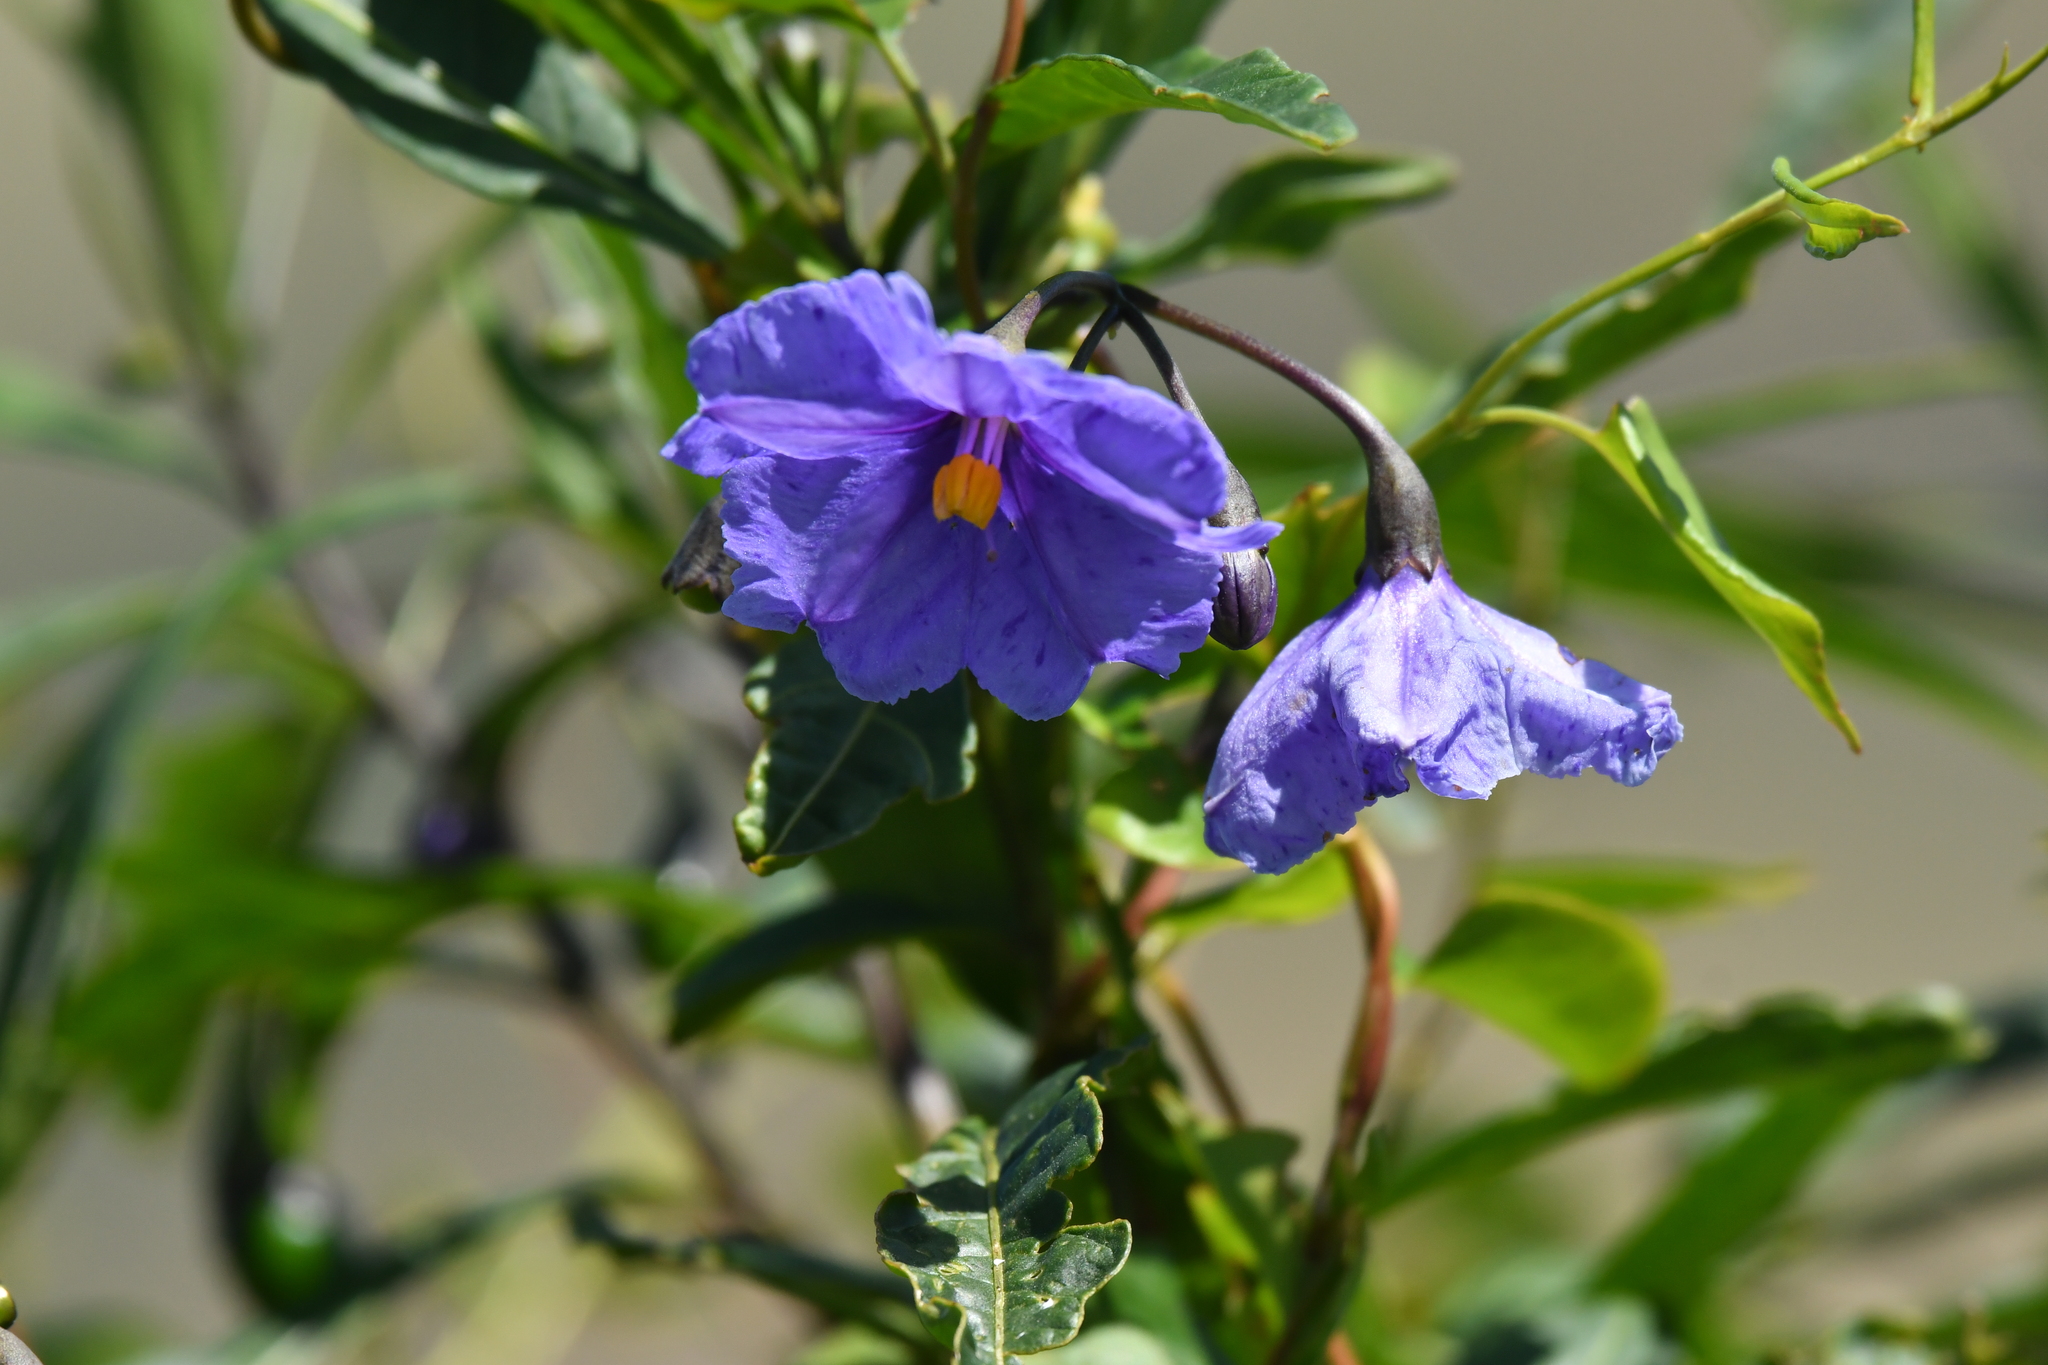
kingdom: Plantae
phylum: Tracheophyta
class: Magnoliopsida
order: Solanales
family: Solanaceae
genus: Solanum
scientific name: Solanum laciniatum
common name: Kangaroo-apple
